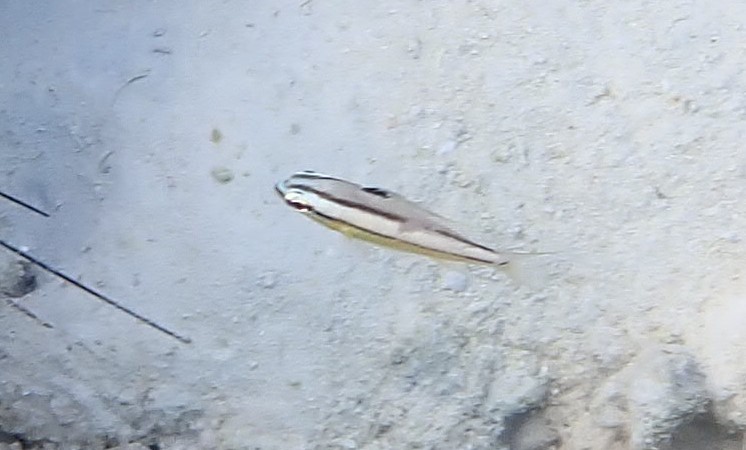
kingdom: Animalia
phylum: Chordata
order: Perciformes
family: Nemipteridae
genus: Scolopsis
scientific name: Scolopsis margaritifera
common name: Pearly monocle bream
